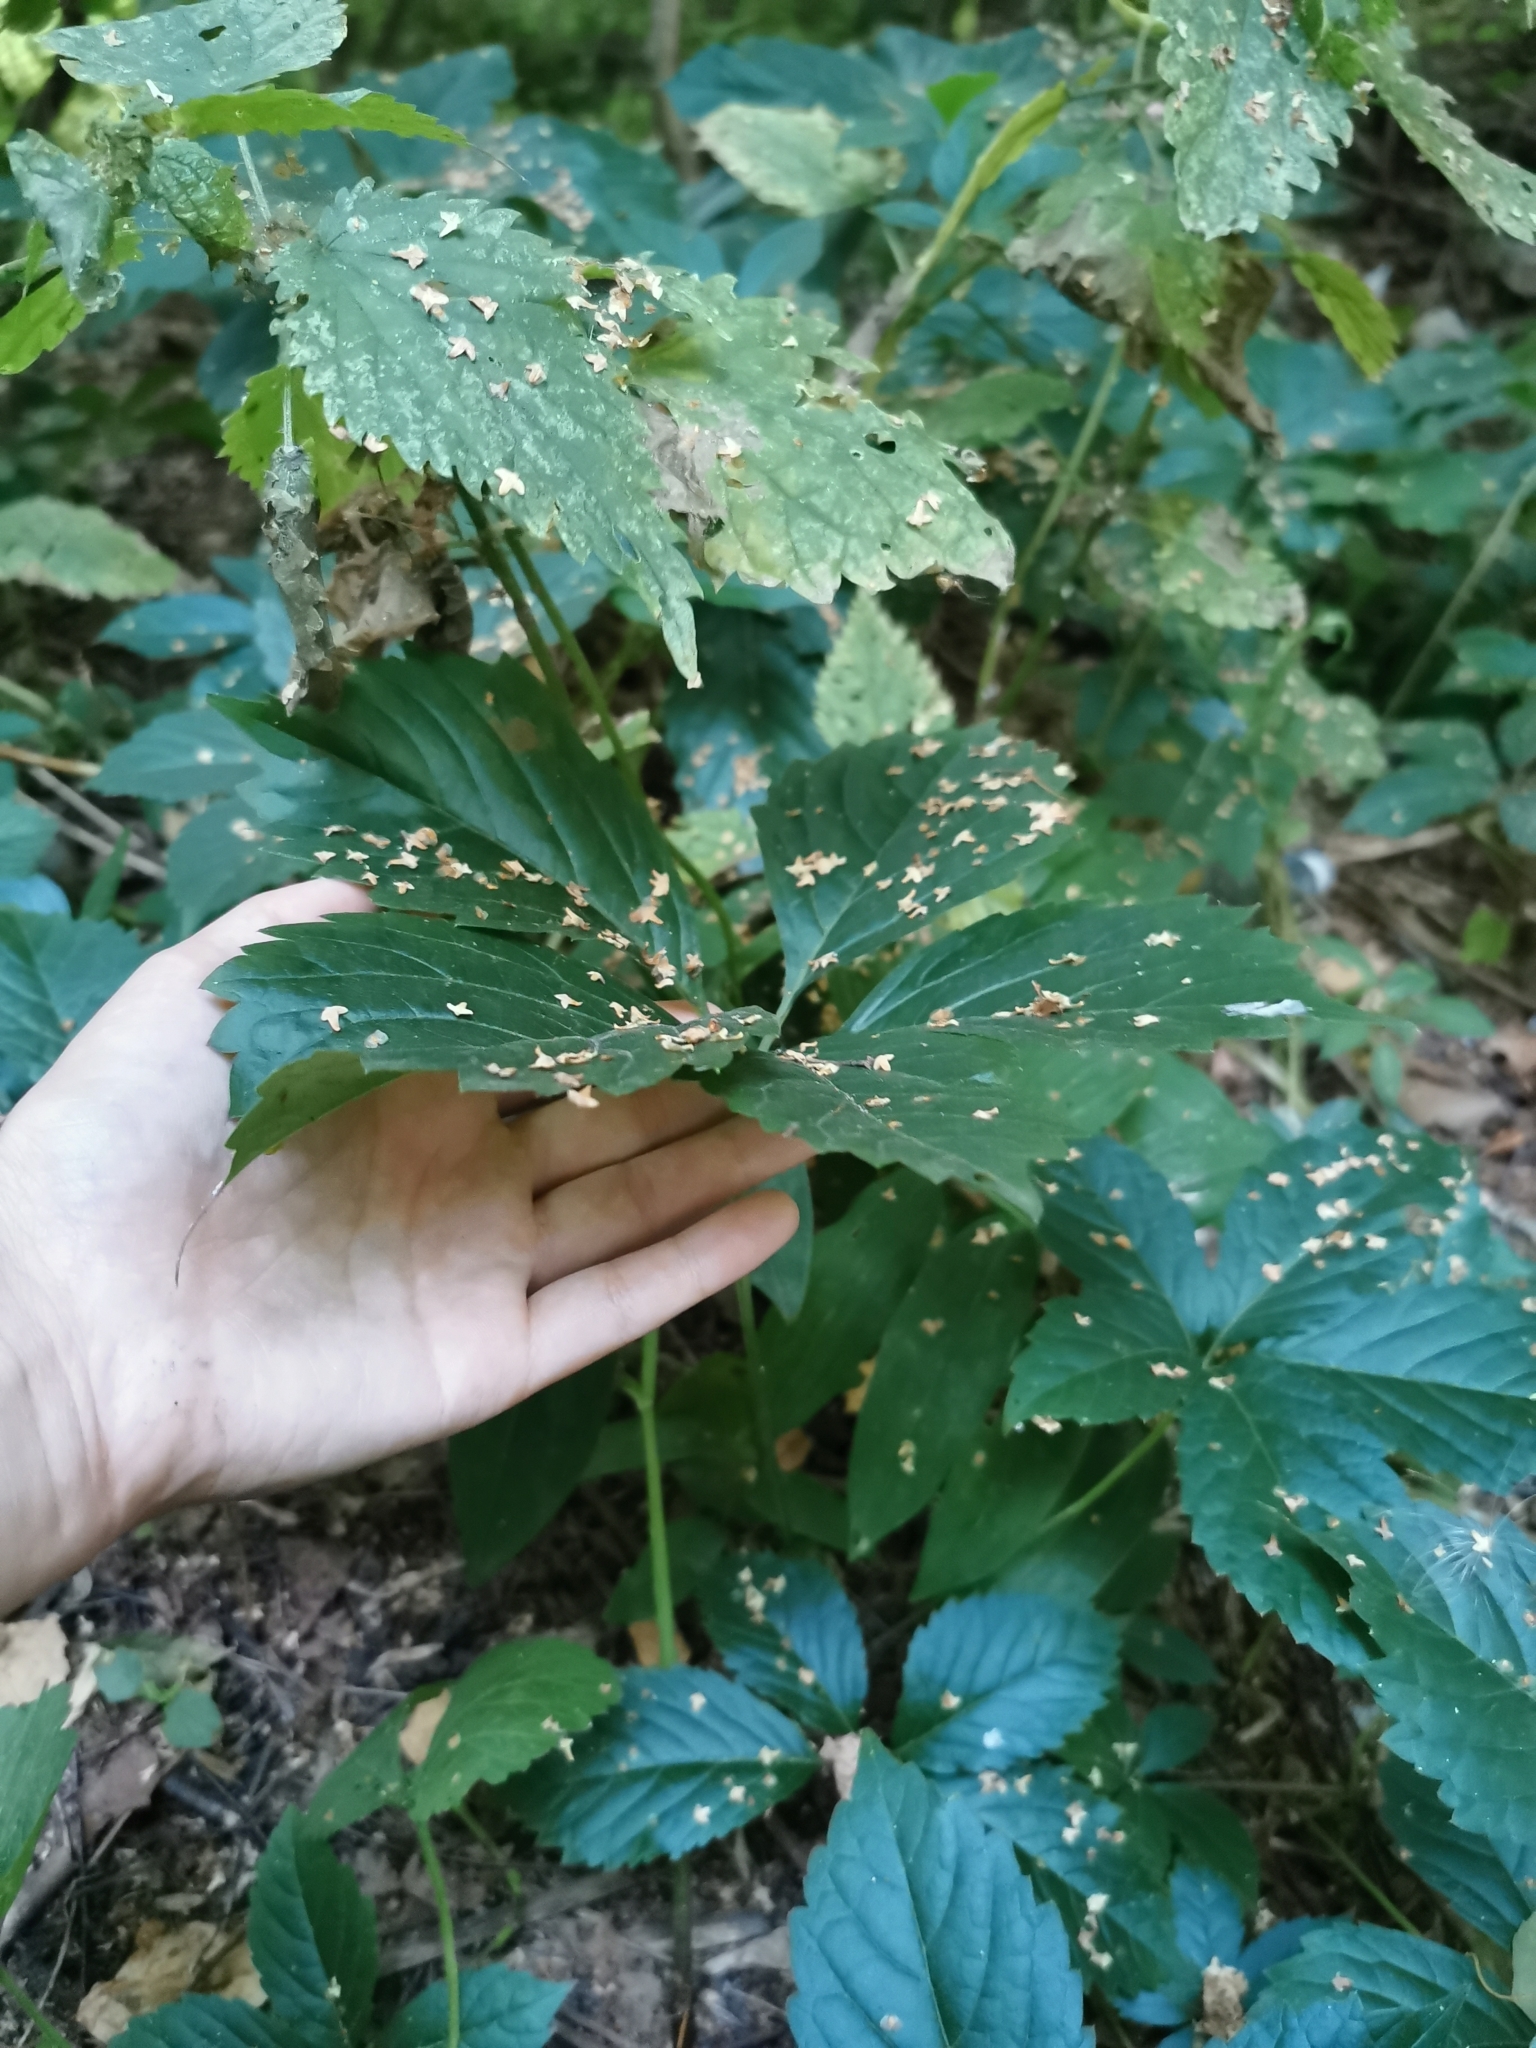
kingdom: Plantae
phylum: Tracheophyta
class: Magnoliopsida
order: Vitales
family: Vitaceae
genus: Parthenocissus
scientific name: Parthenocissus inserta
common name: False virginia-creeper
